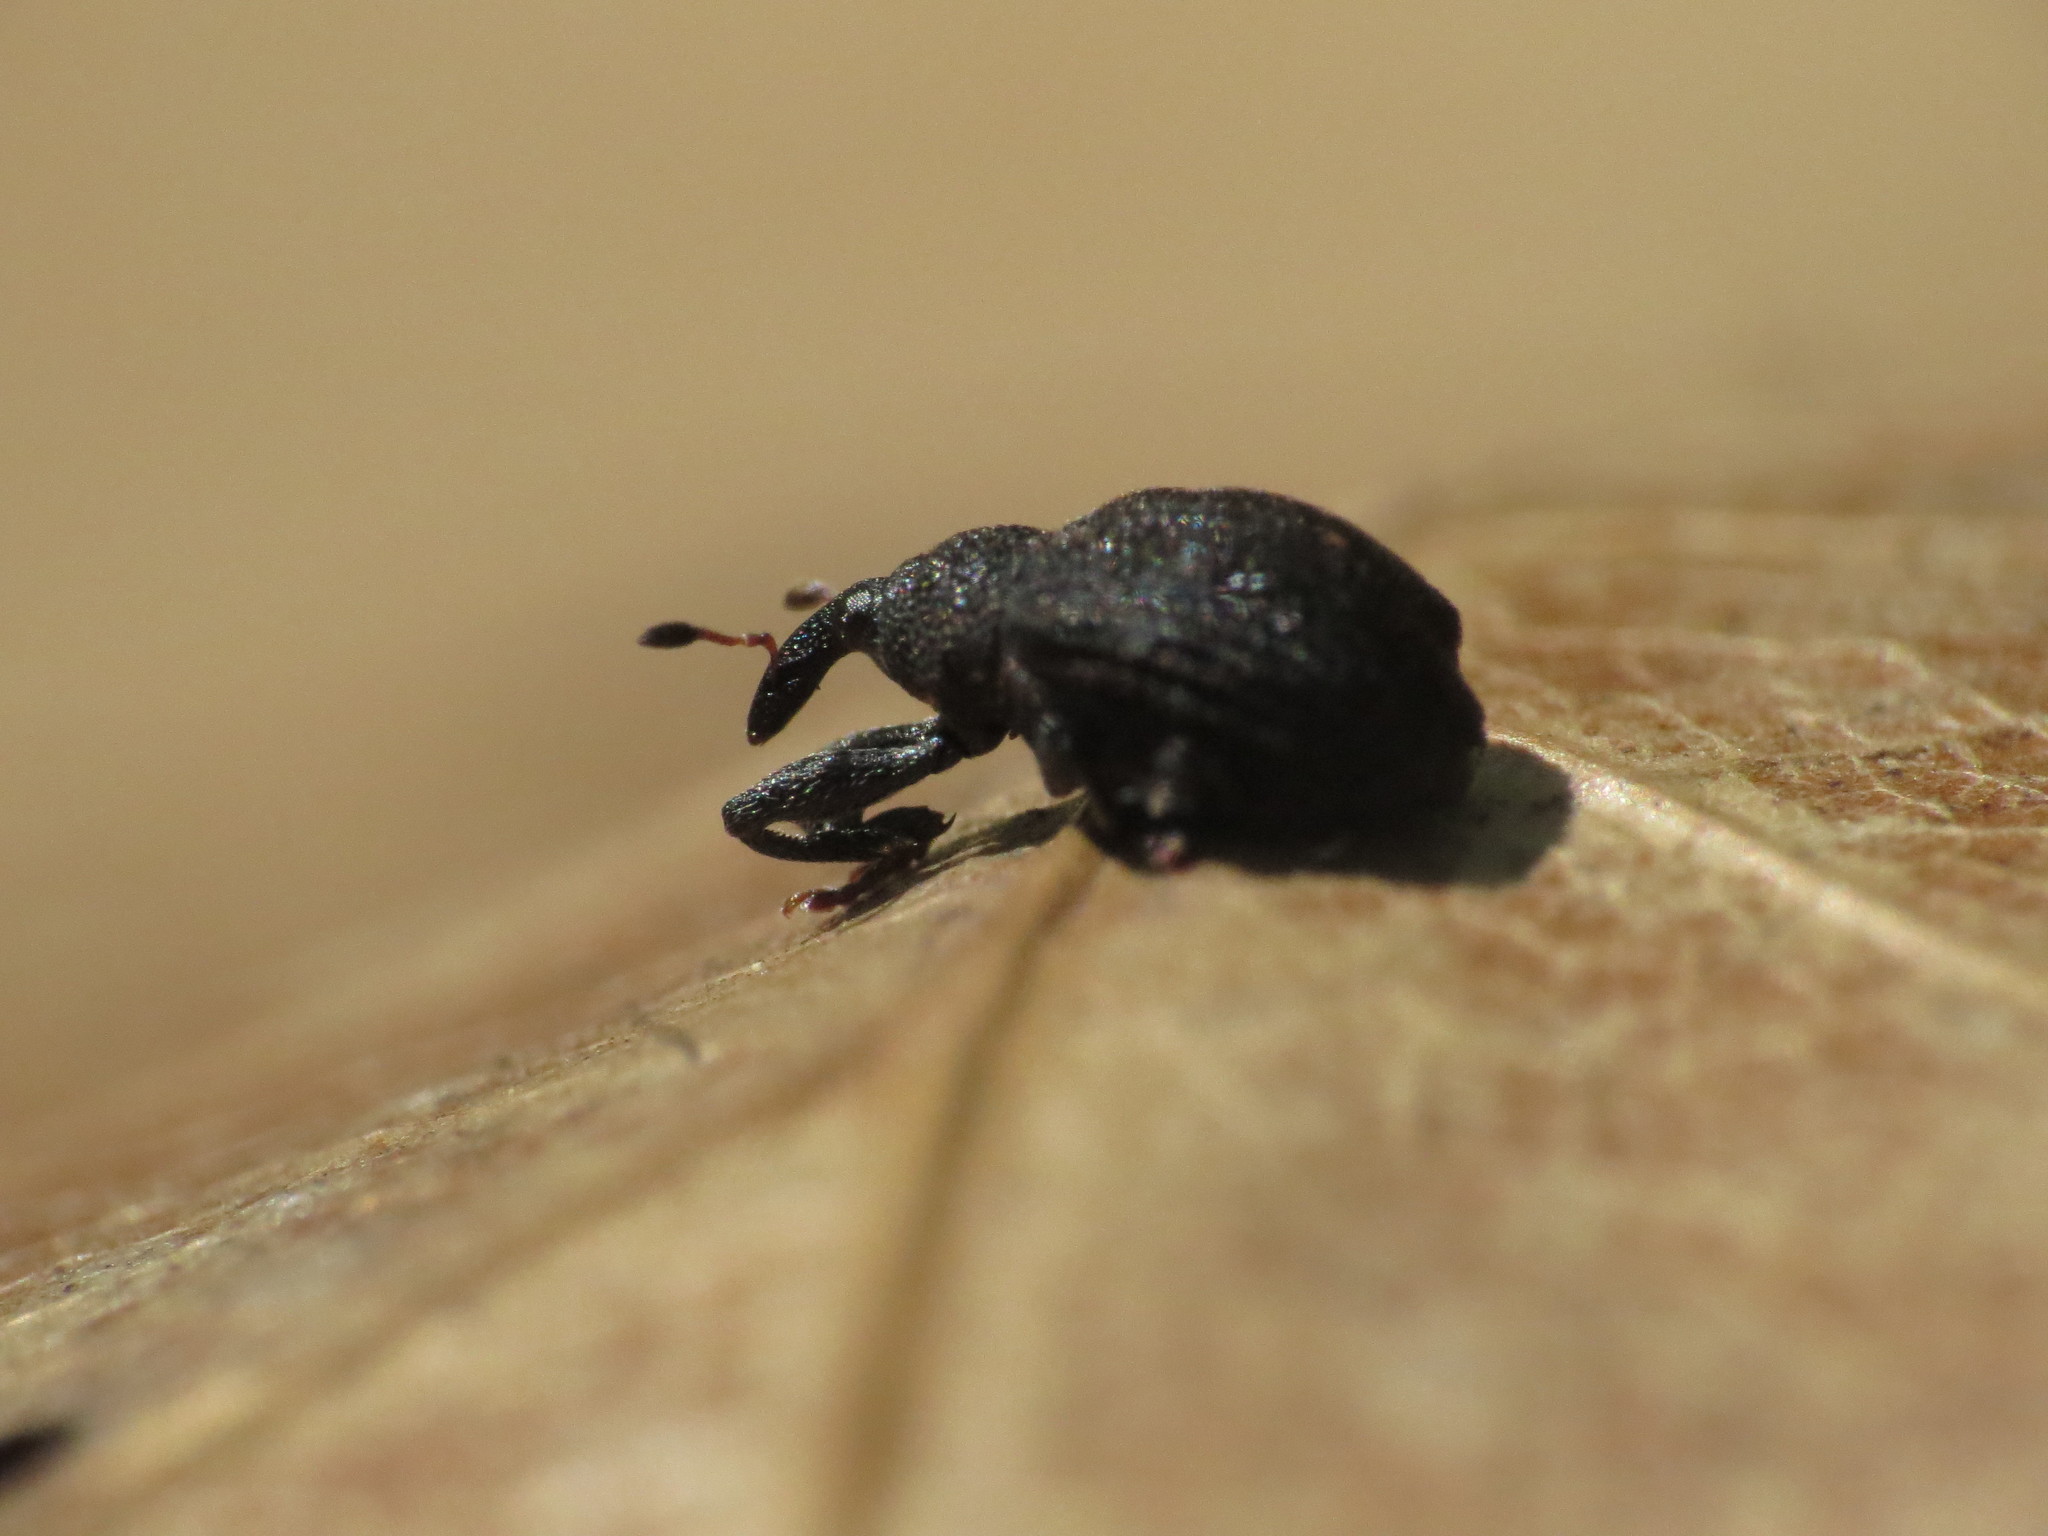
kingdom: Animalia
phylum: Arthropoda
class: Insecta
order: Coleoptera
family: Curculionidae
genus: Odontopus
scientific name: Odontopus calceatus
